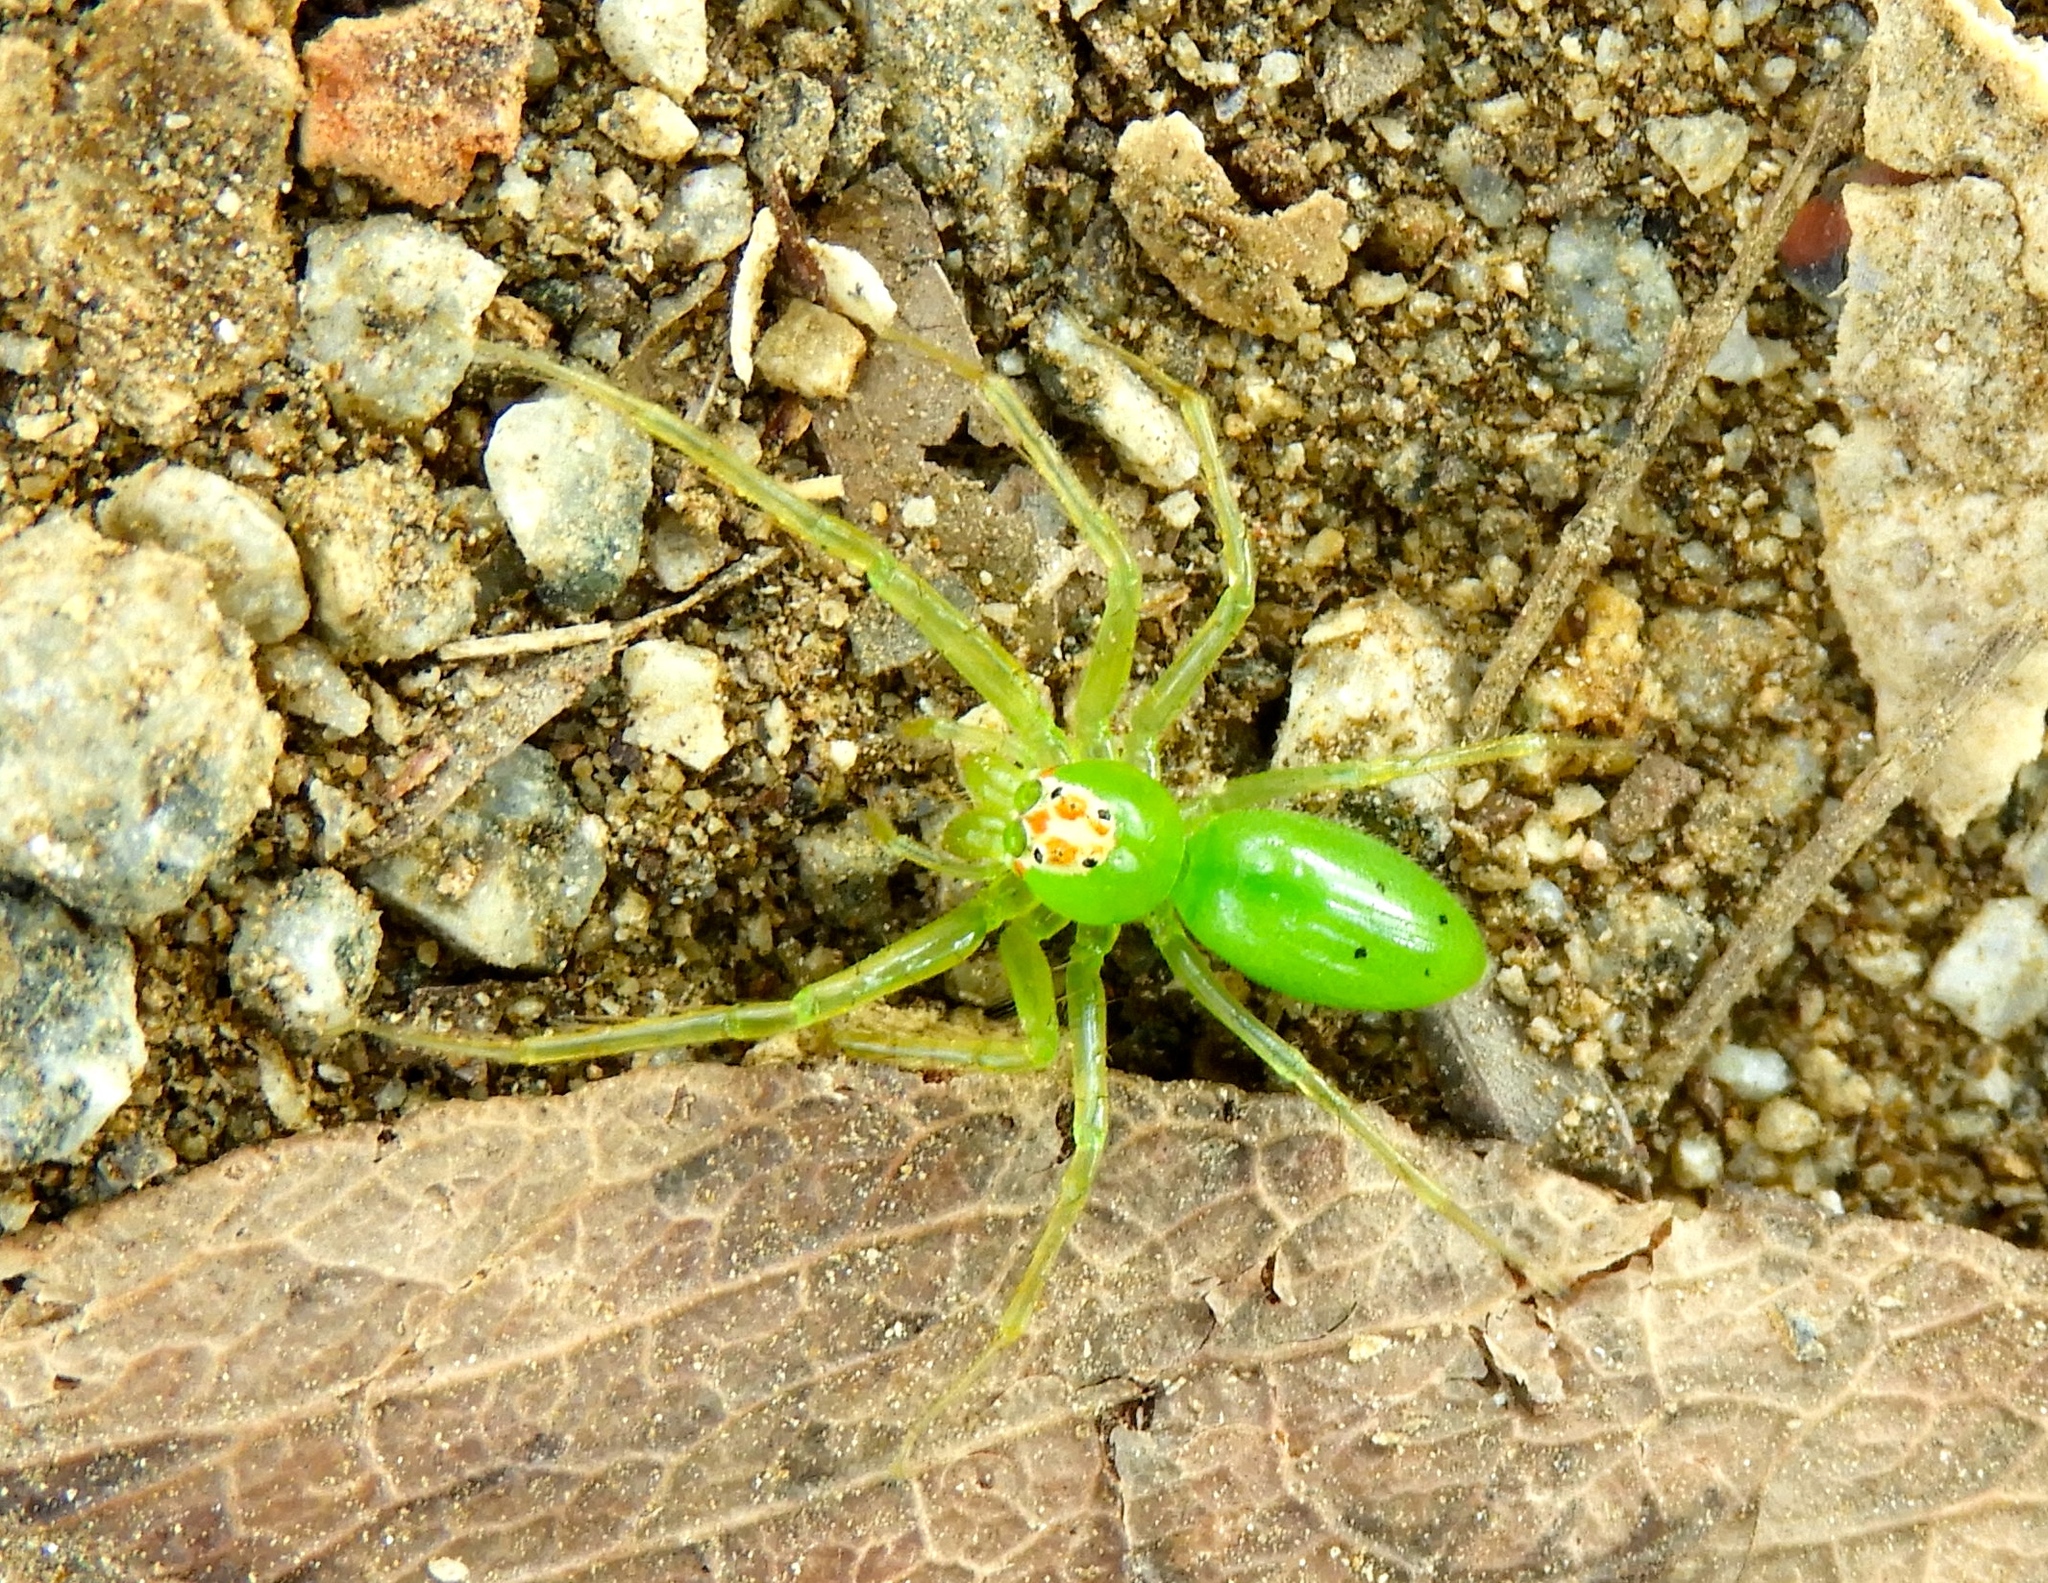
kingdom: Animalia
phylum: Arthropoda
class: Arachnida
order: Araneae
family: Salticidae
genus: Lyssomanes
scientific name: Lyssomanes
